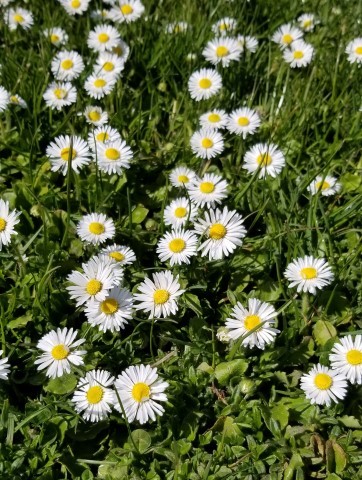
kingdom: Plantae
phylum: Tracheophyta
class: Magnoliopsida
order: Asterales
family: Asteraceae
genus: Bellis
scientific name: Bellis perennis
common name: Lawndaisy
